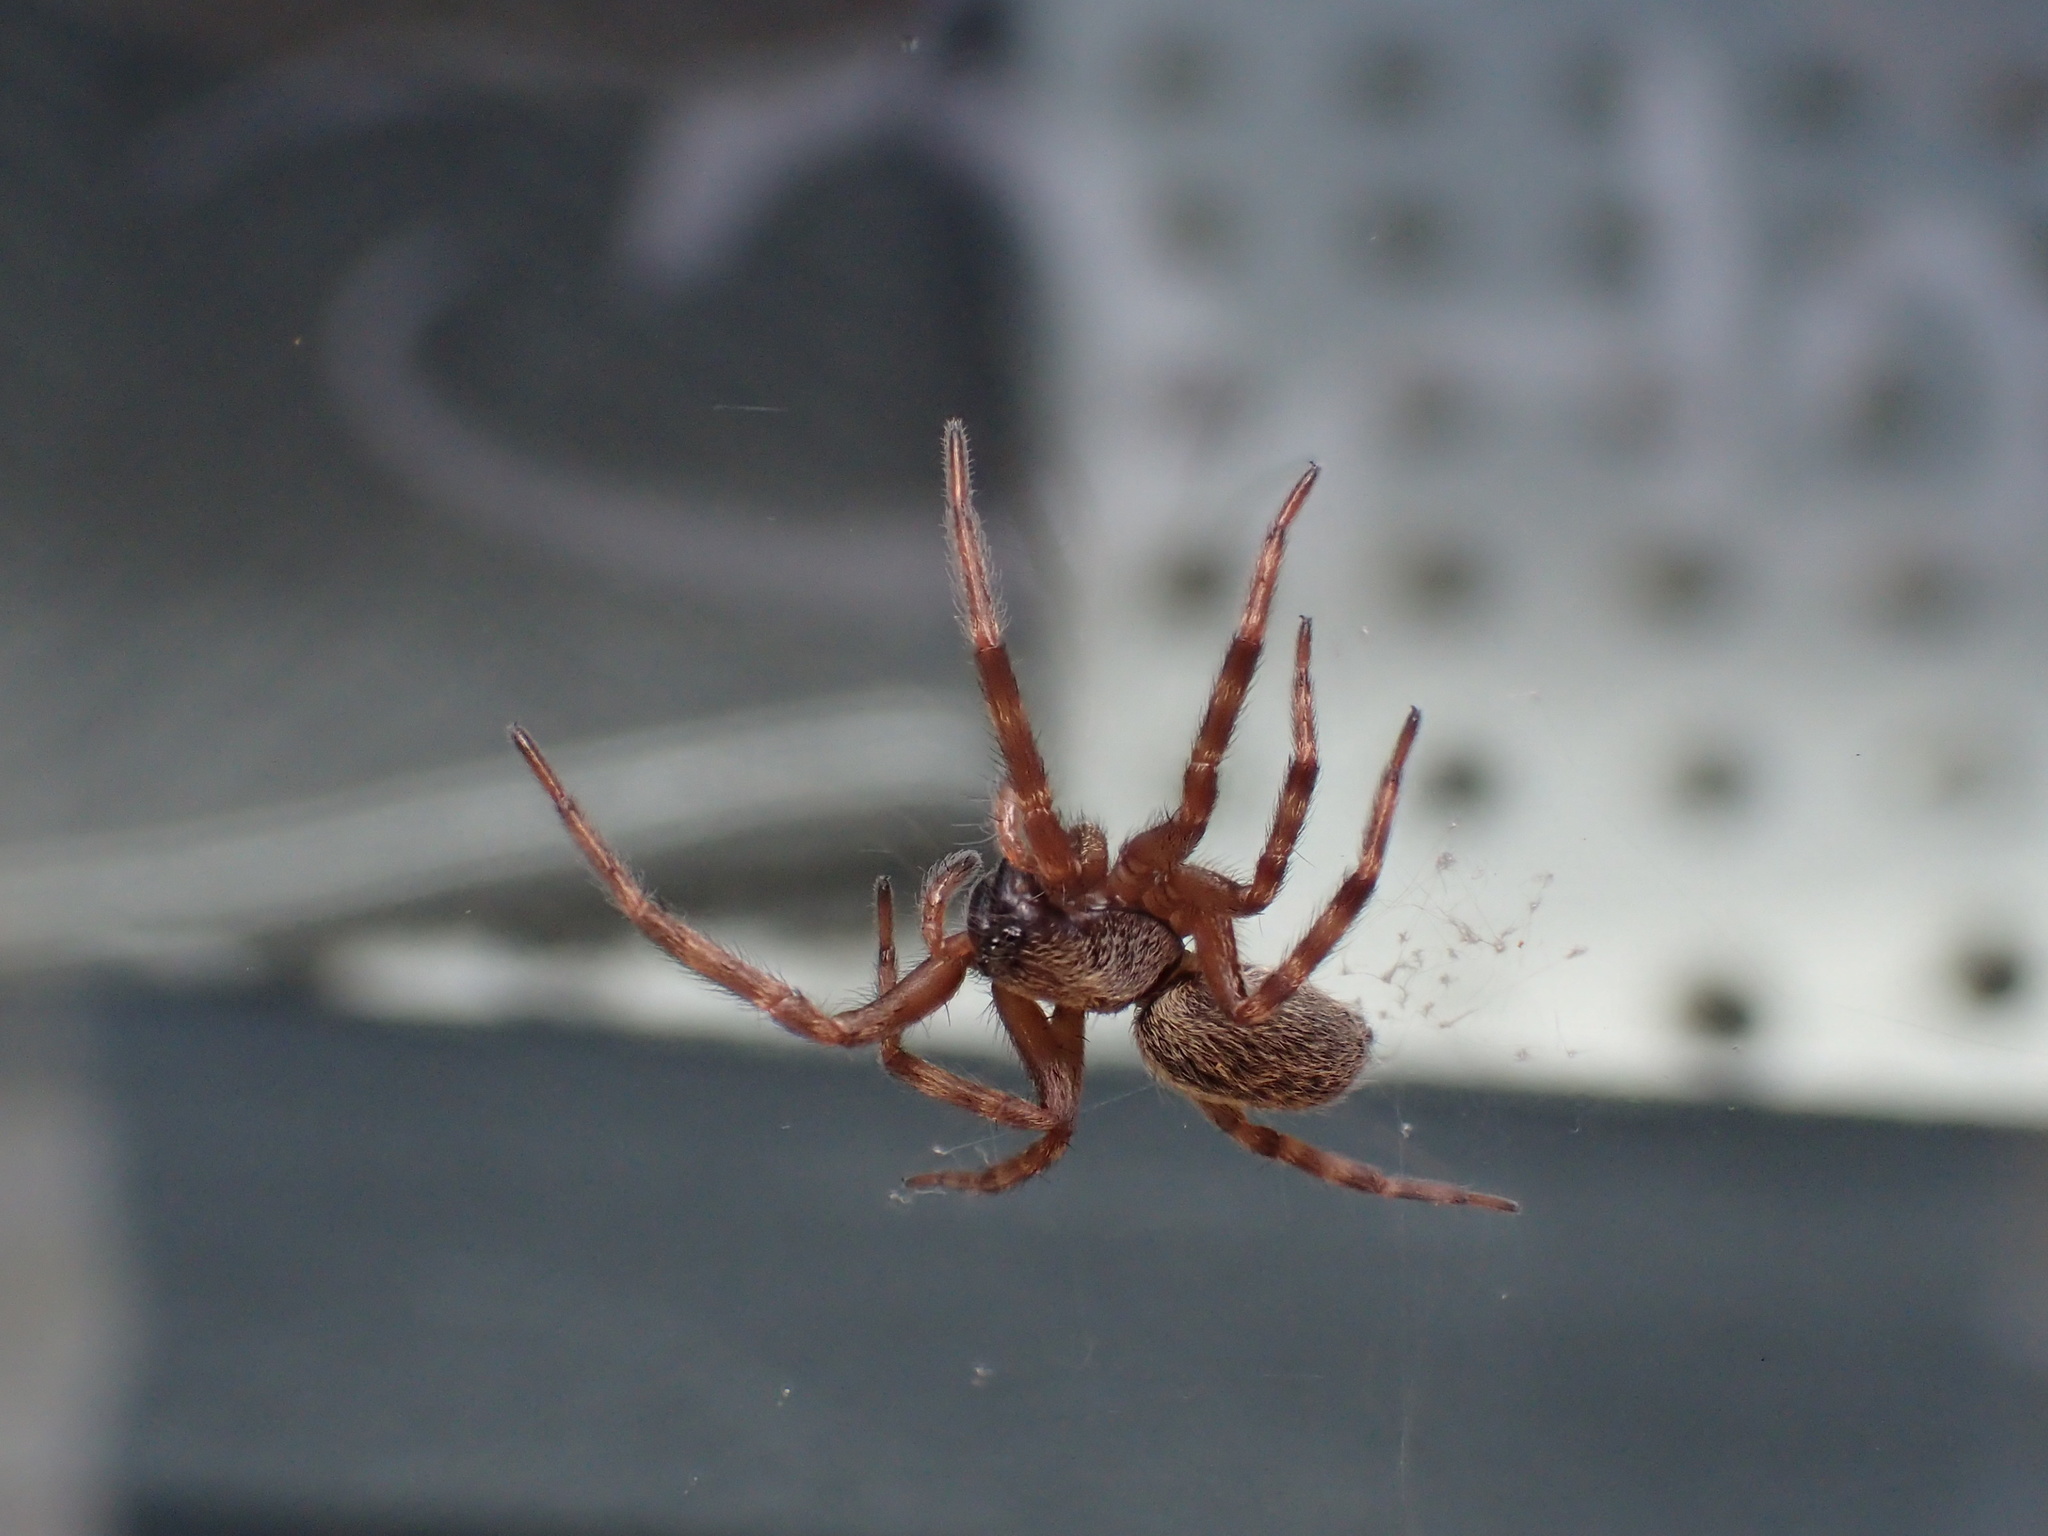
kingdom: Animalia
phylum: Arthropoda
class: Arachnida
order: Araneae
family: Desidae
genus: Badumna
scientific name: Badumna longinqua
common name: Gray house spider
